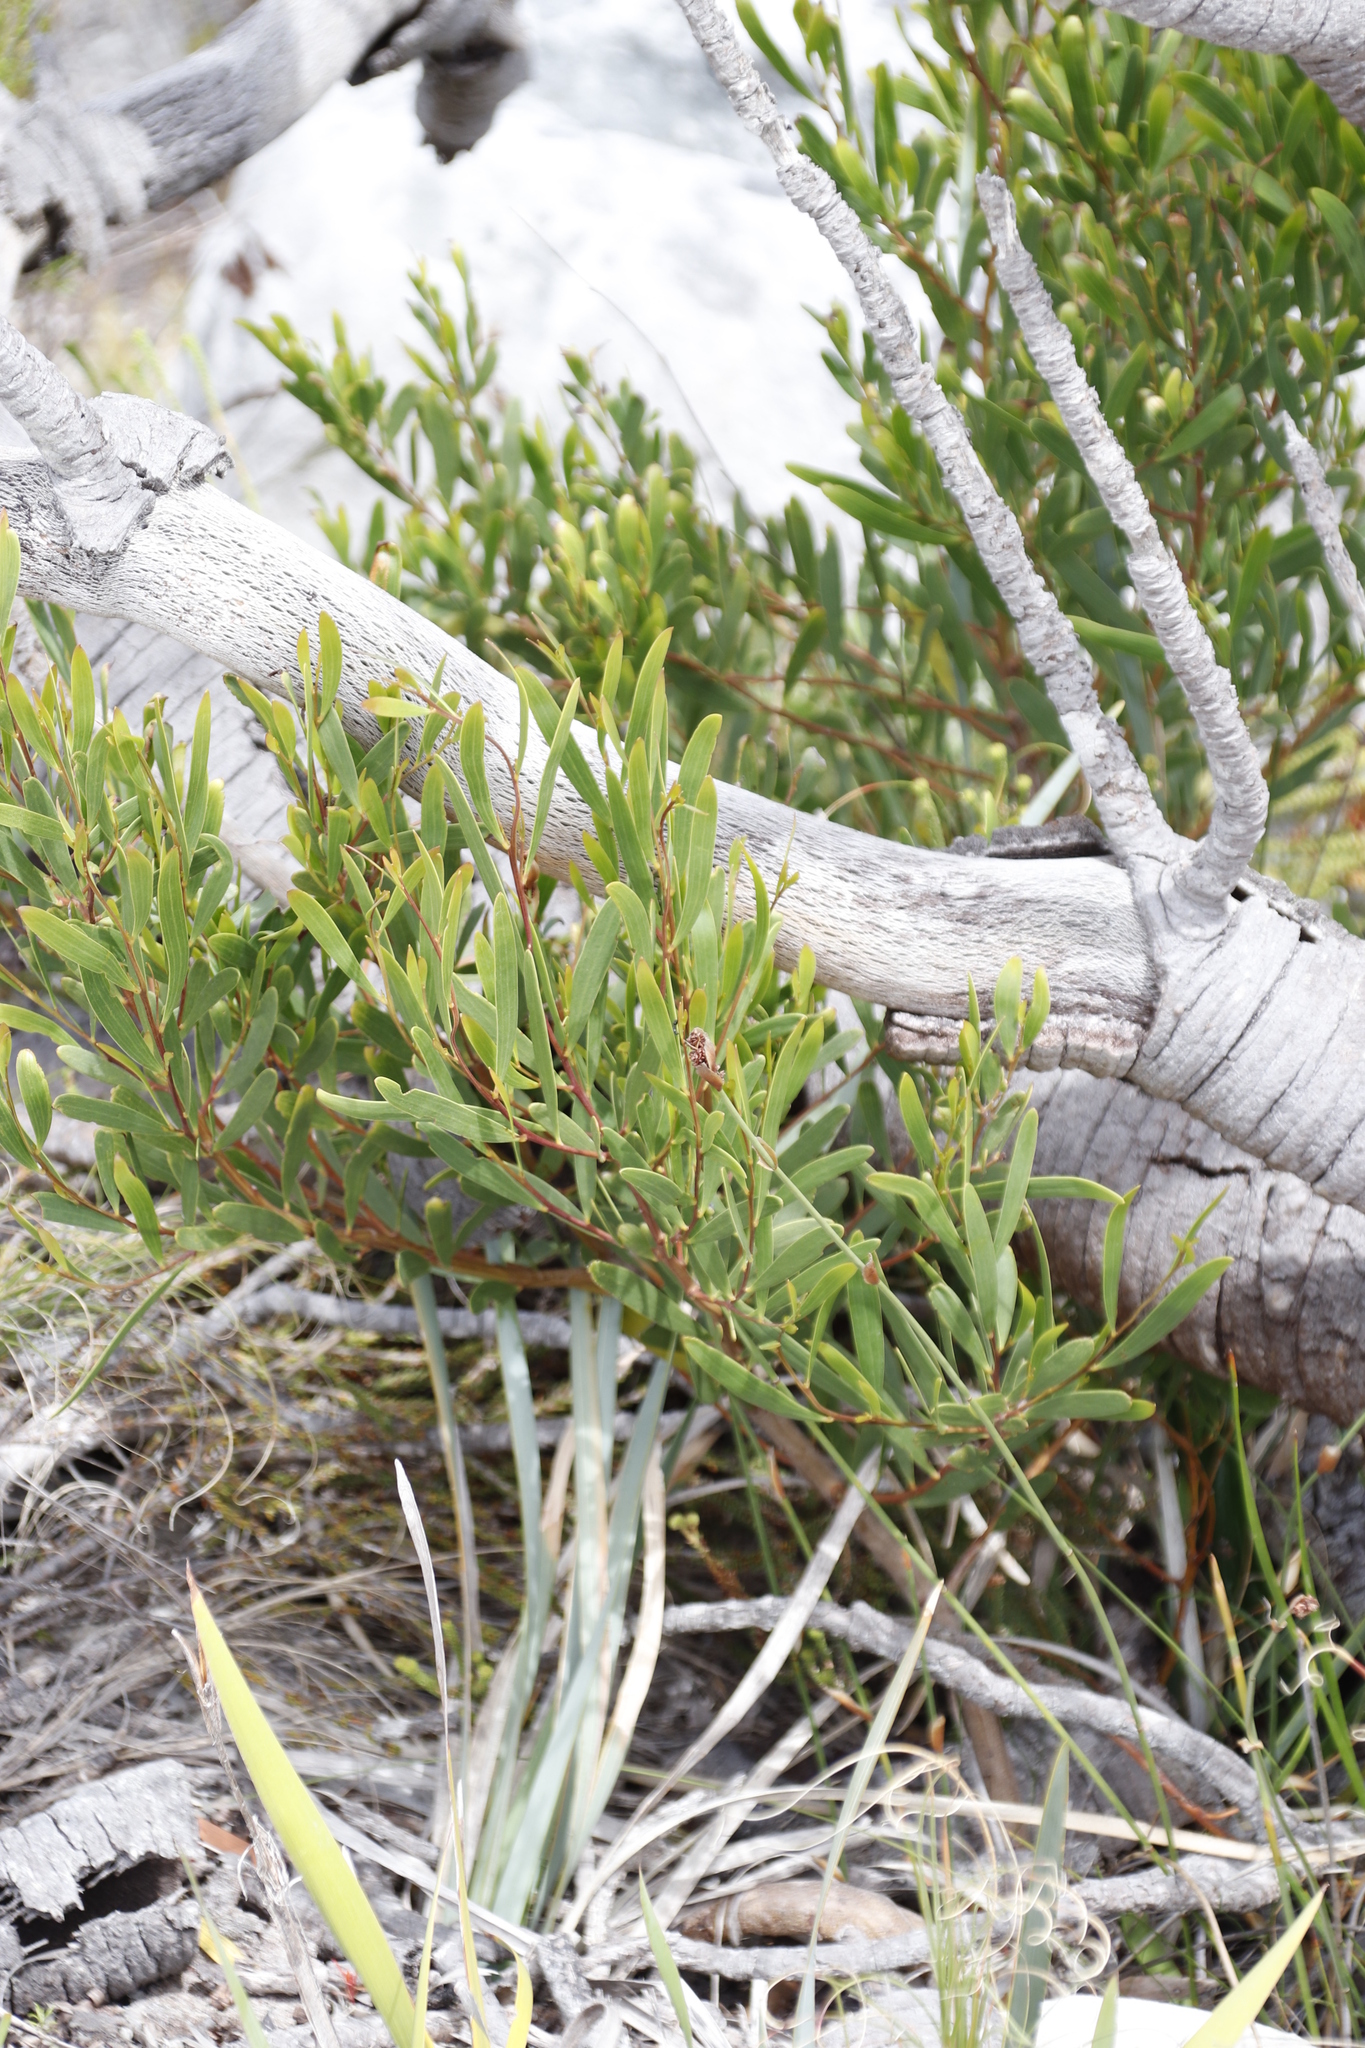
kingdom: Plantae
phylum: Tracheophyta
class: Magnoliopsida
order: Fabales
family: Fabaceae
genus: Acacia
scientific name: Acacia cyclops
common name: Coastal wattle
